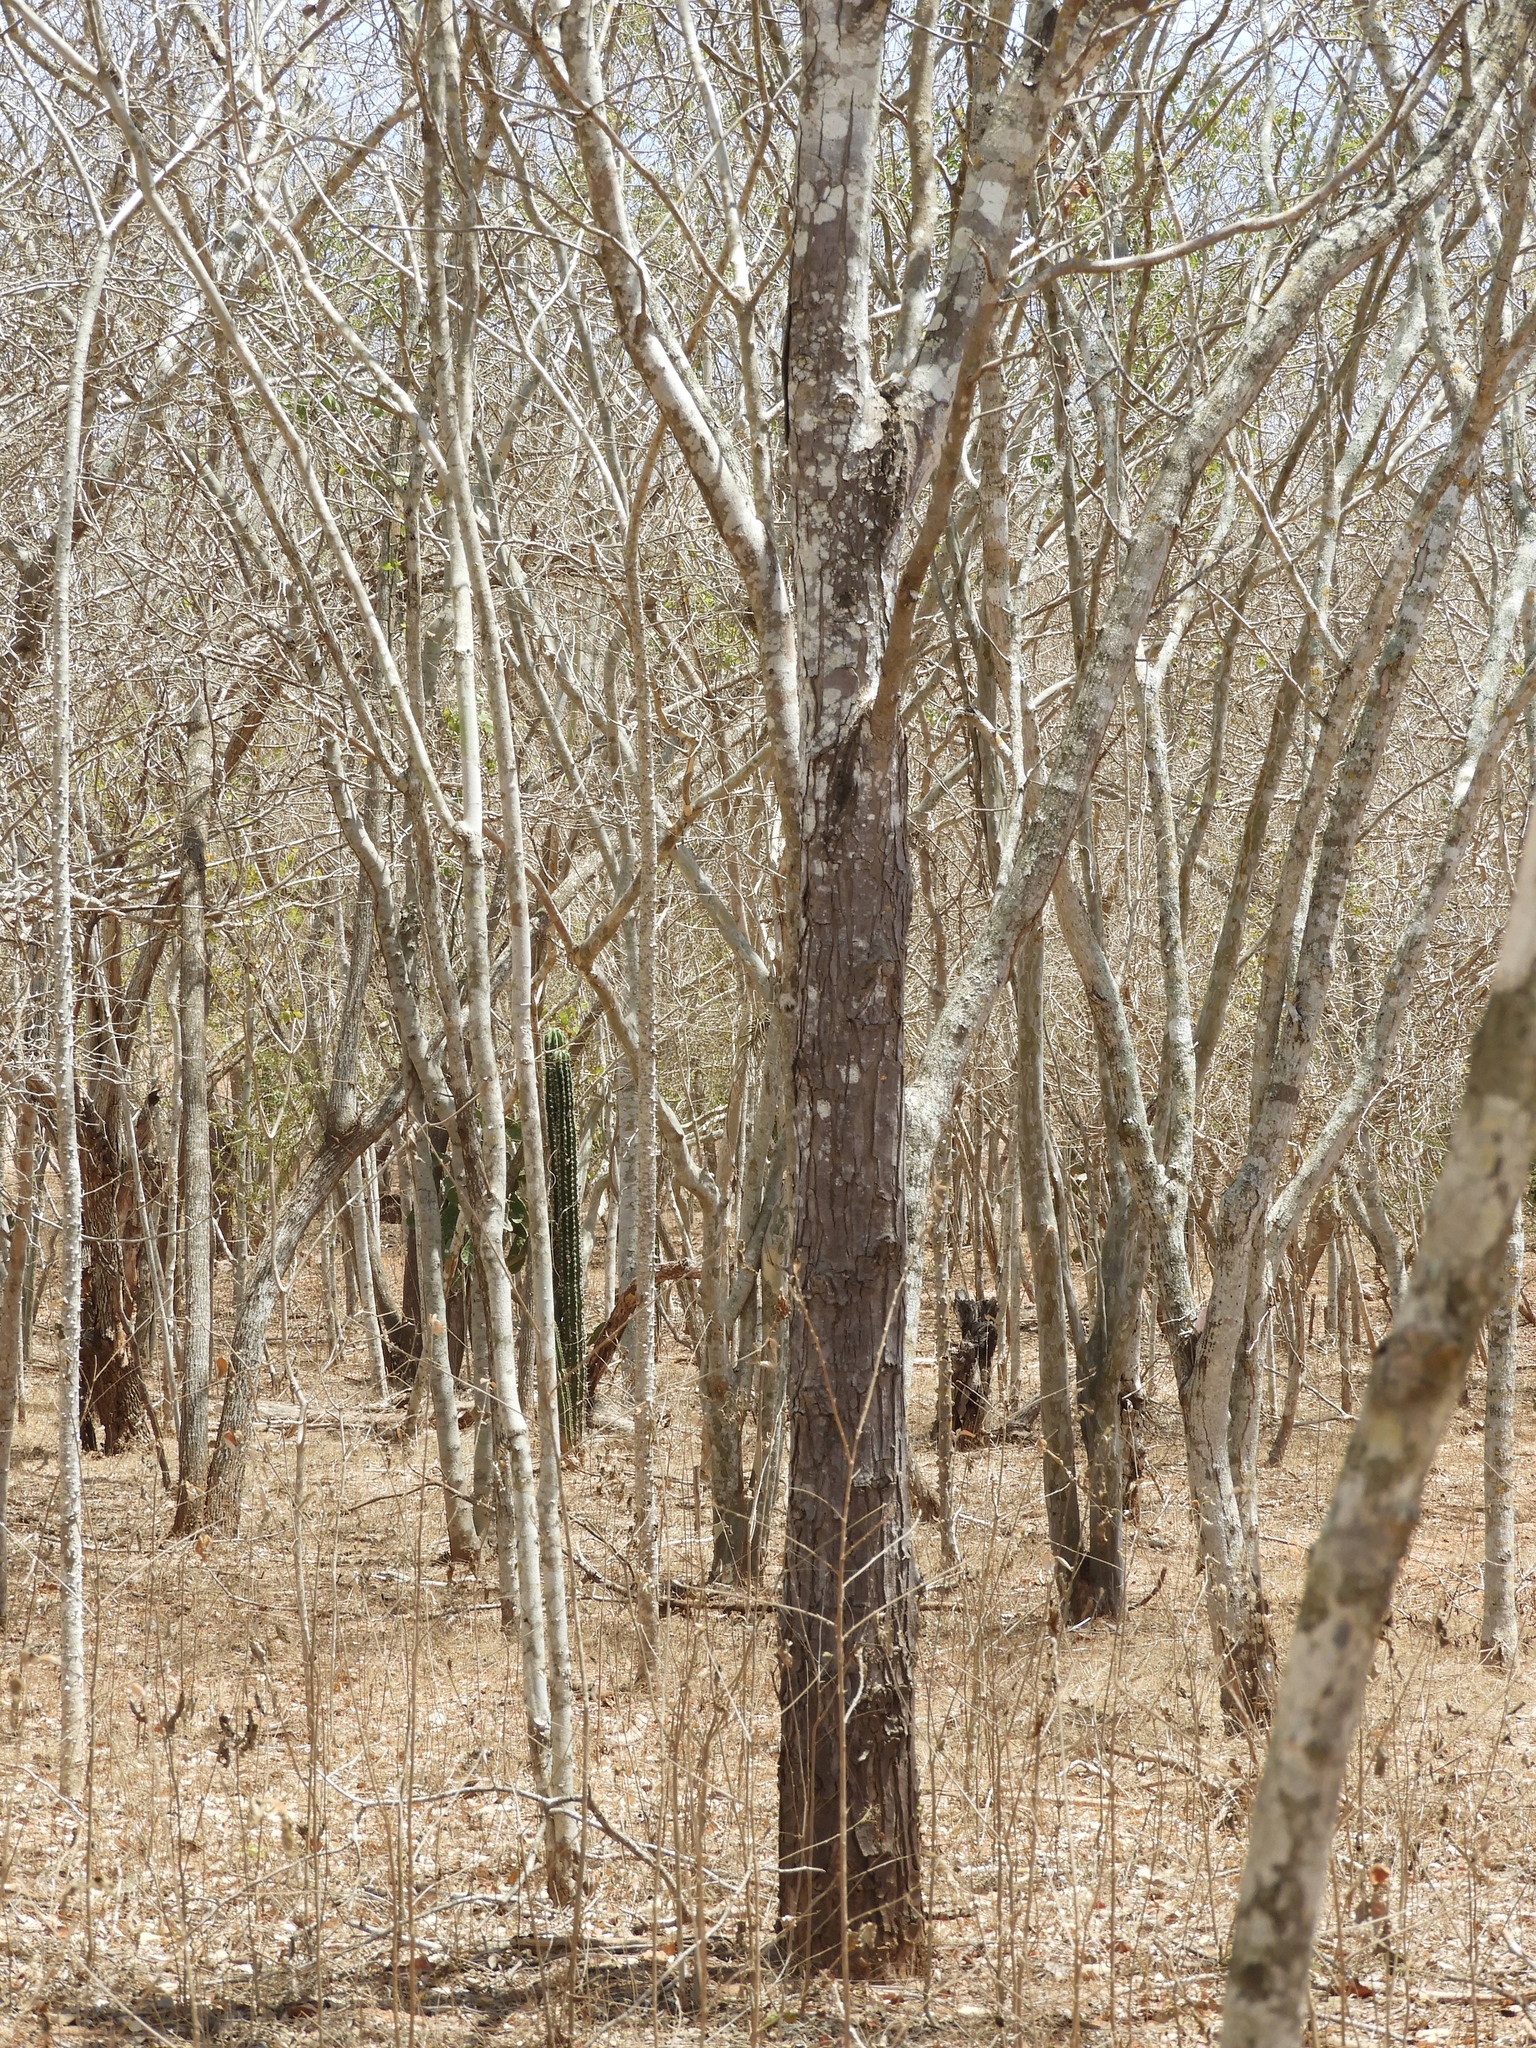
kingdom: Plantae
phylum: Tracheophyta
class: Magnoliopsida
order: Sapindales
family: Meliaceae
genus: Swietenia
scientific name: Swietenia humilis
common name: Pacific coast mahogany
